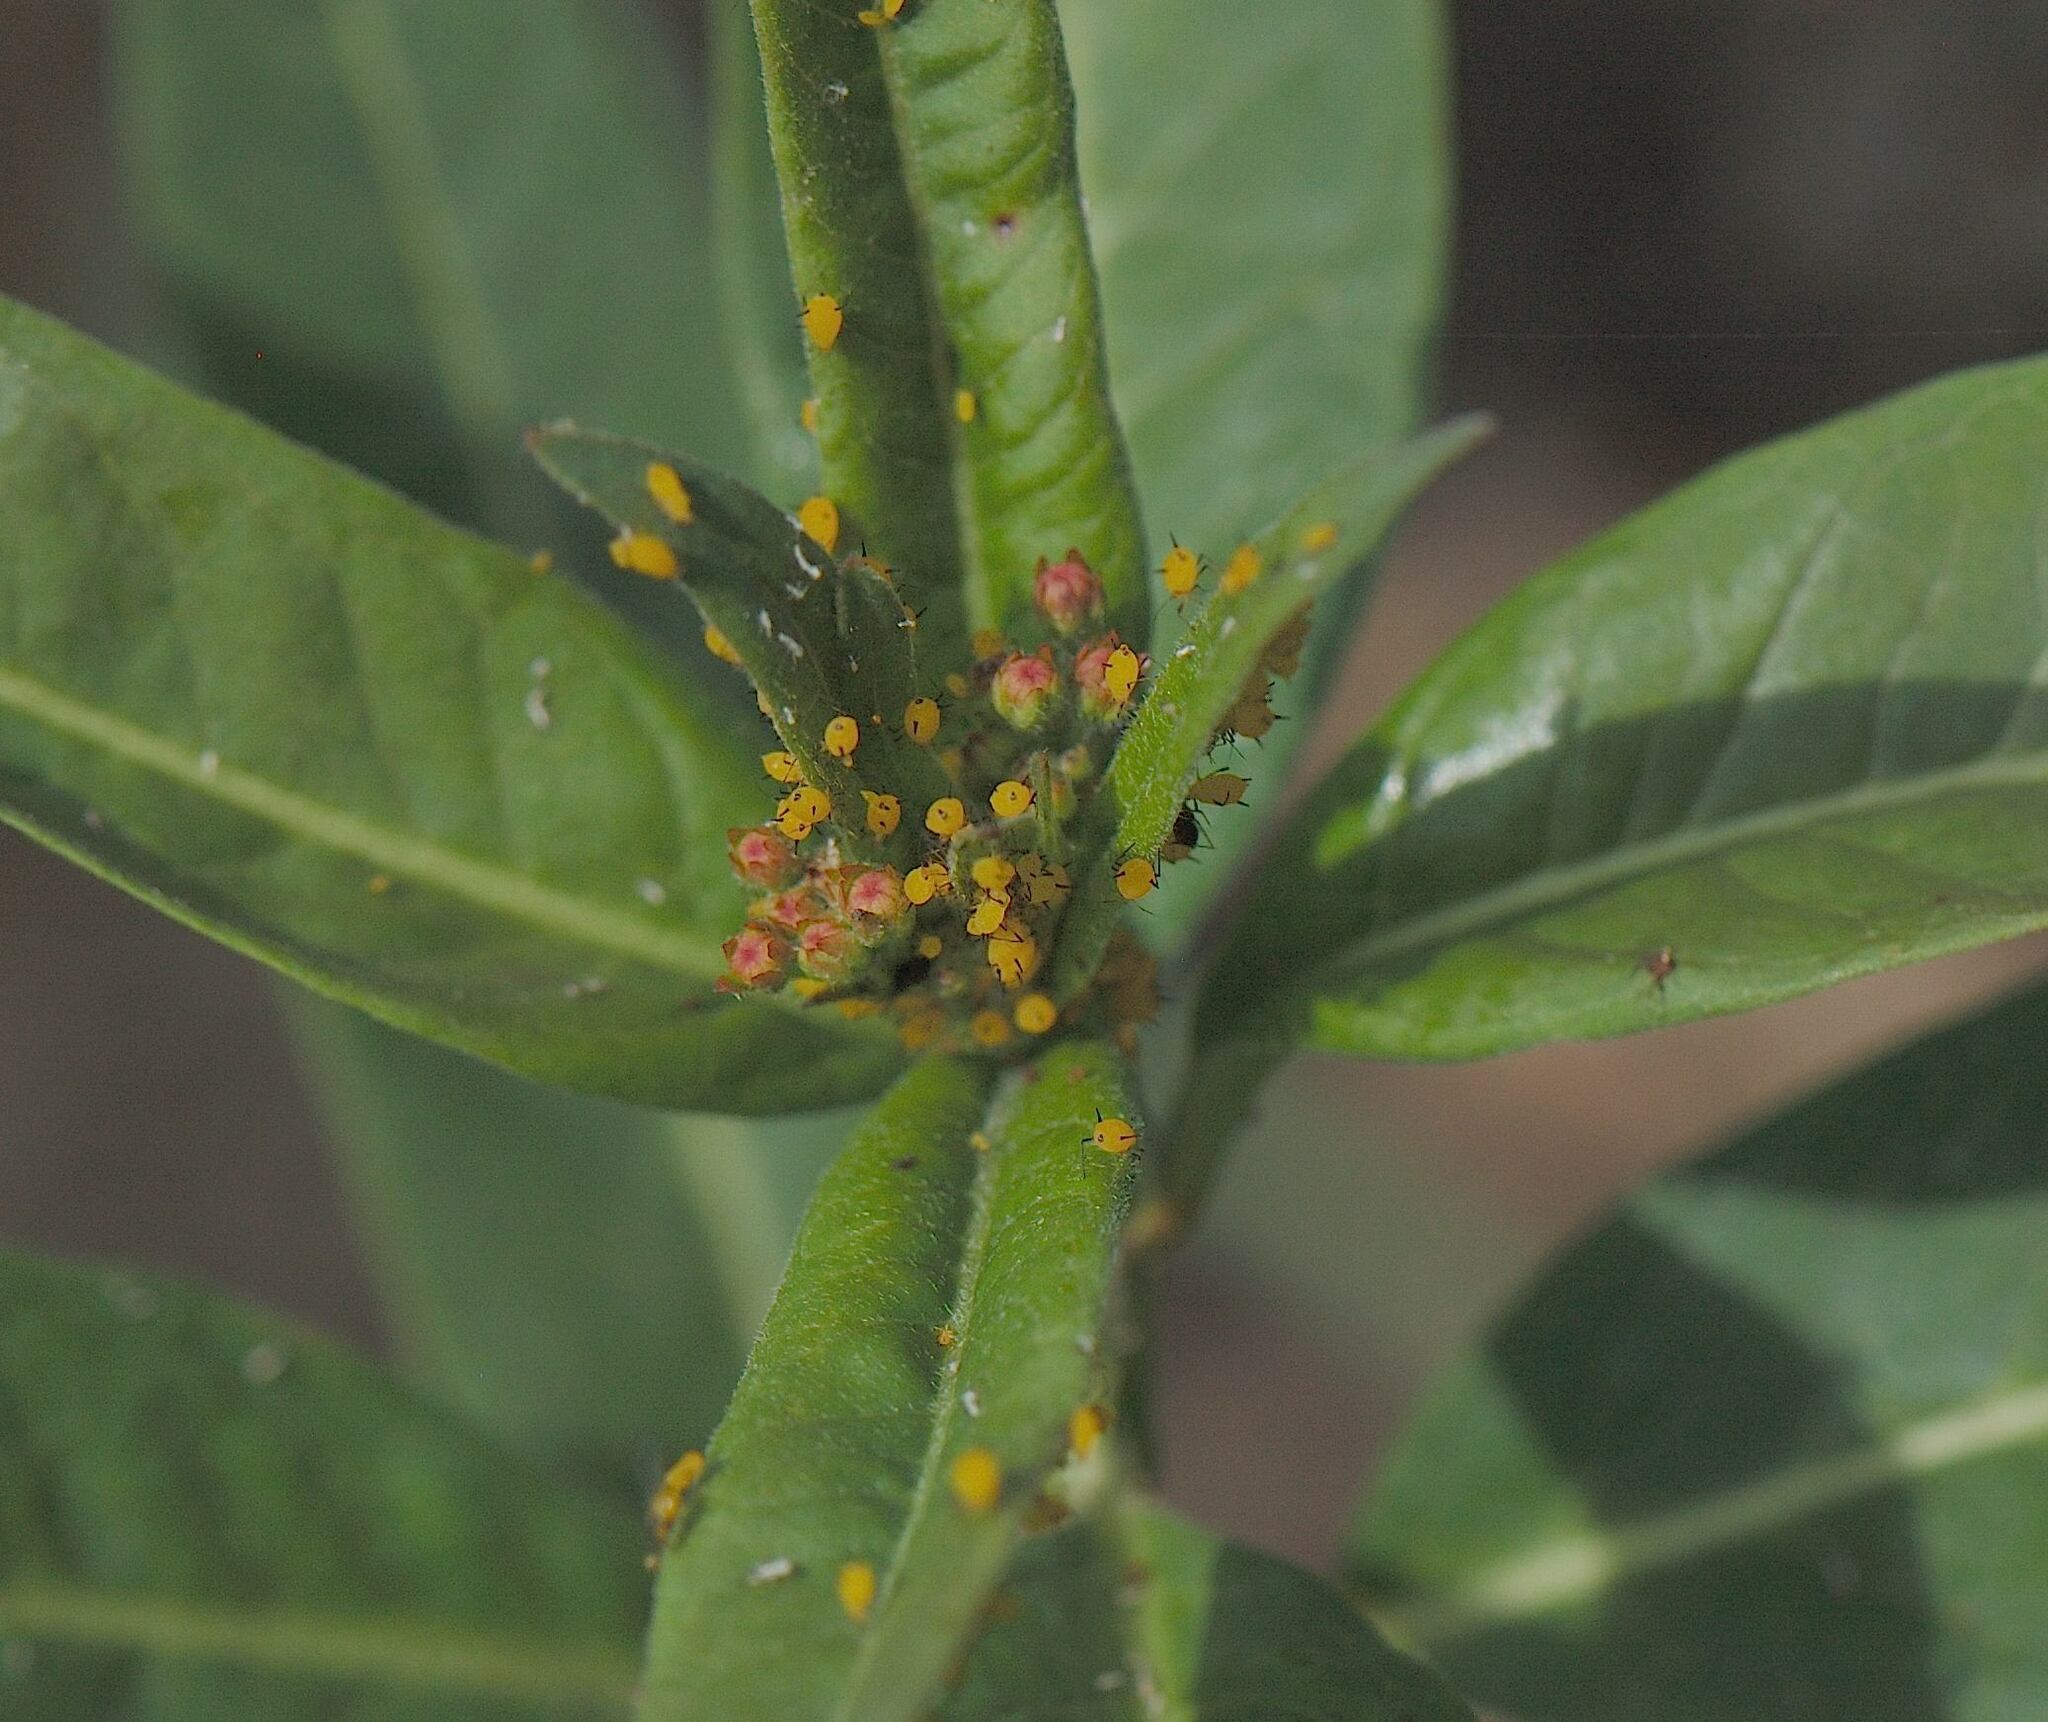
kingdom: Animalia
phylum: Arthropoda
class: Insecta
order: Hemiptera
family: Aphididae
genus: Aphis
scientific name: Aphis nerii
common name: Oleander aphid
